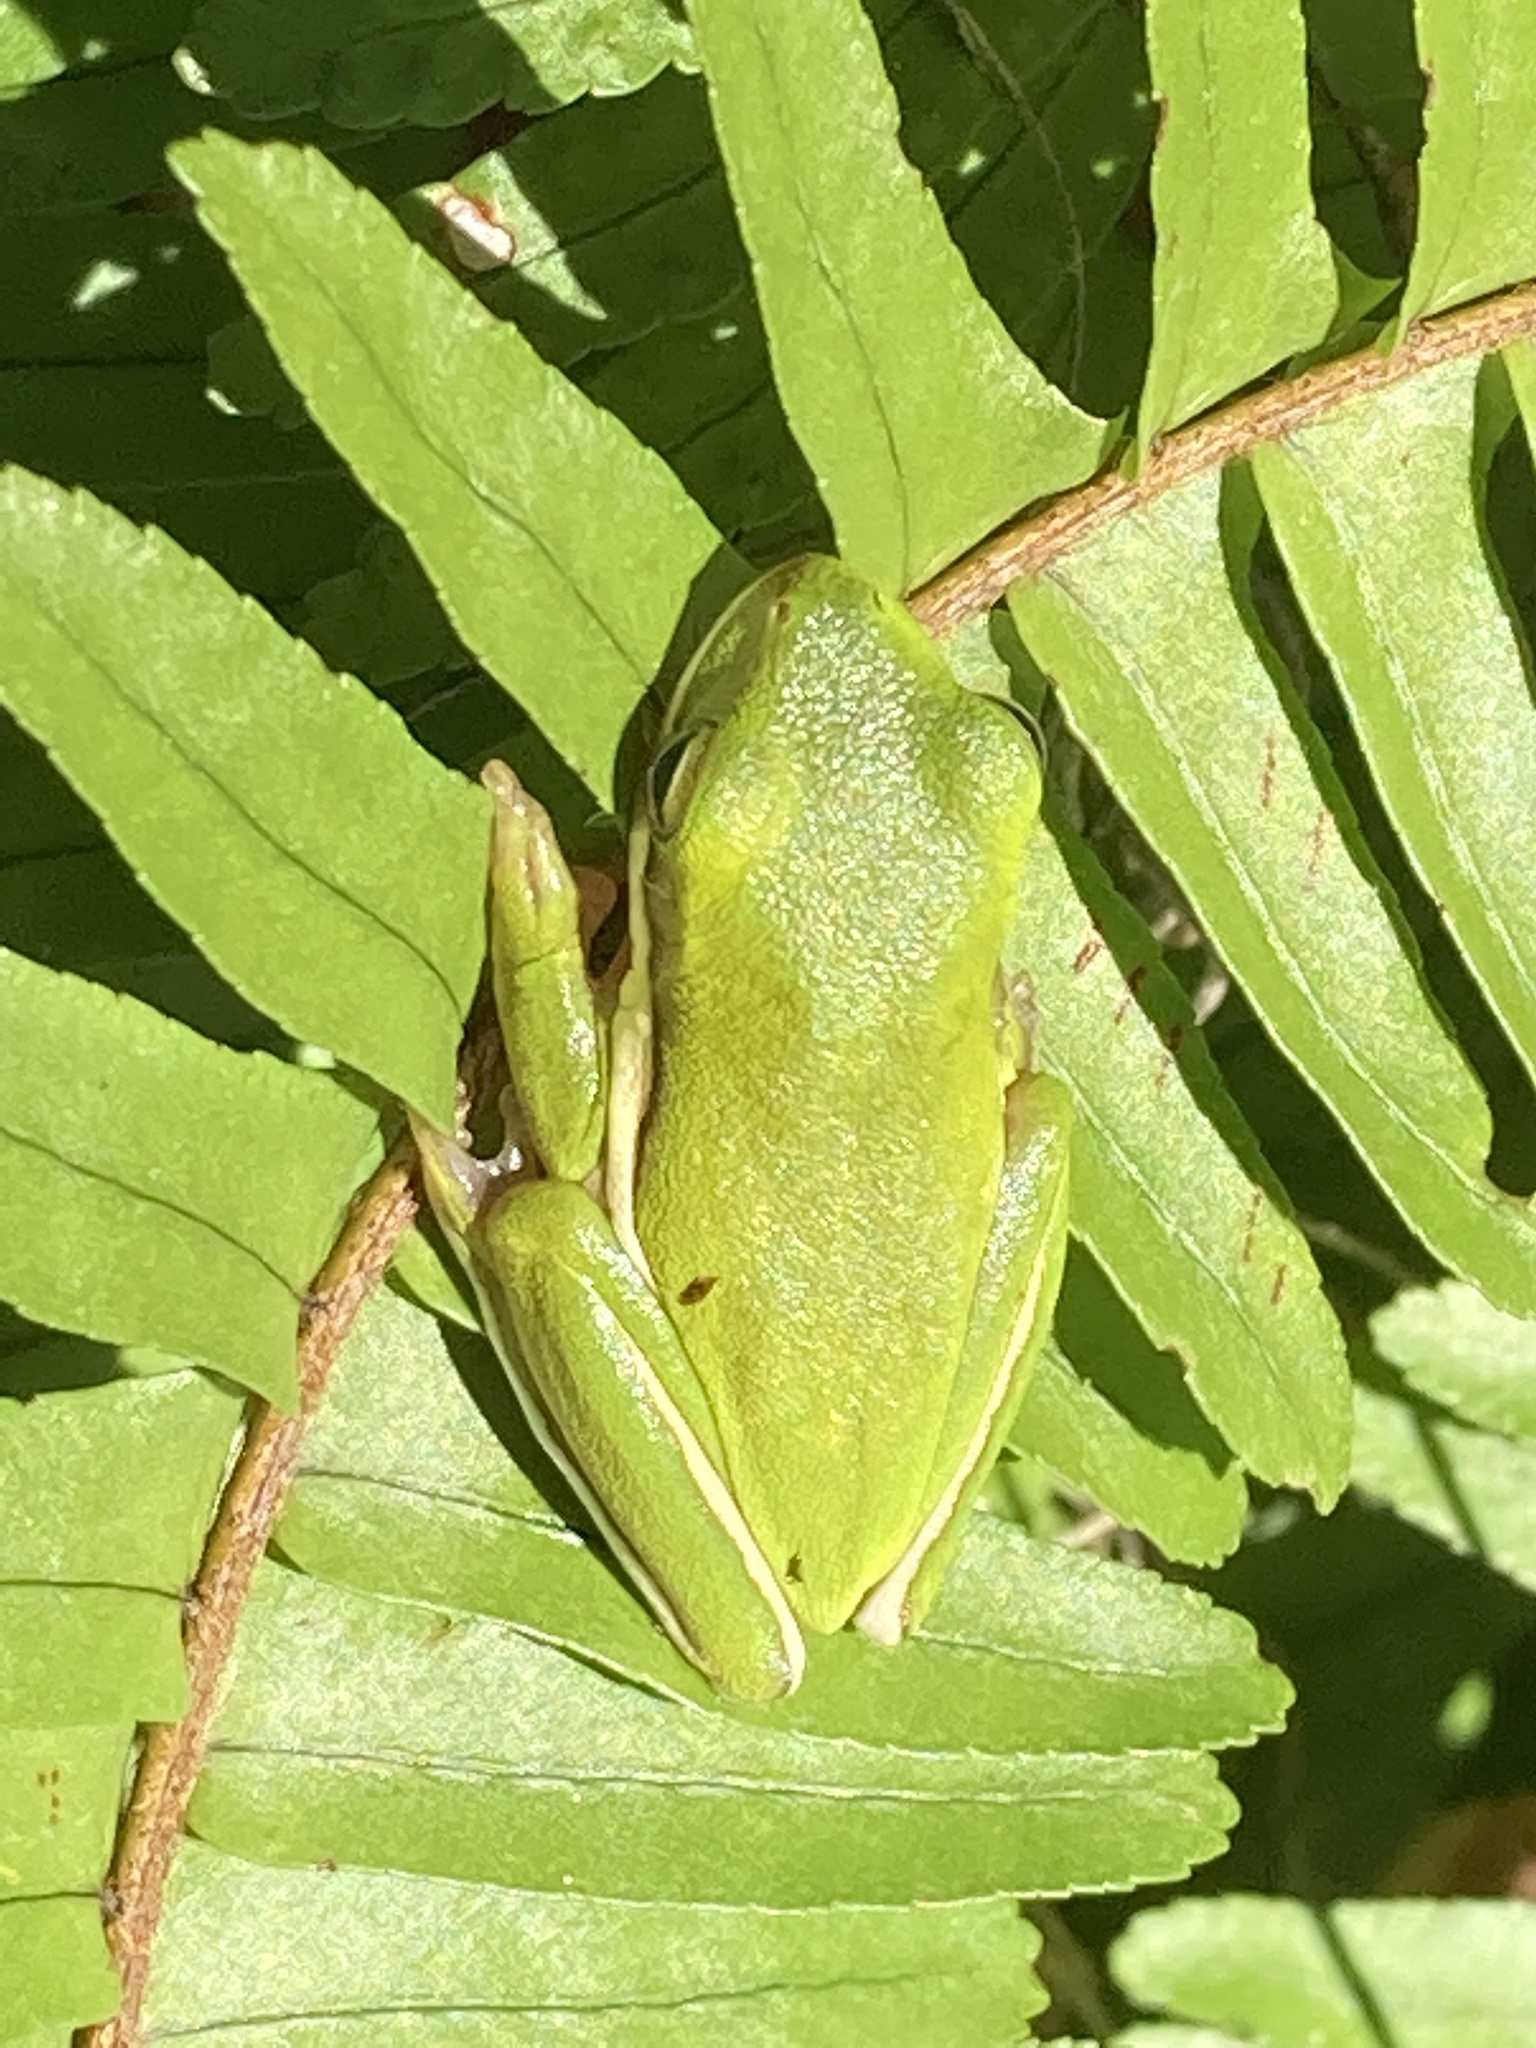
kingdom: Animalia
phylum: Chordata
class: Amphibia
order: Anura
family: Hylidae
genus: Dryophytes
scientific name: Dryophytes cinereus
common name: Green treefrog
